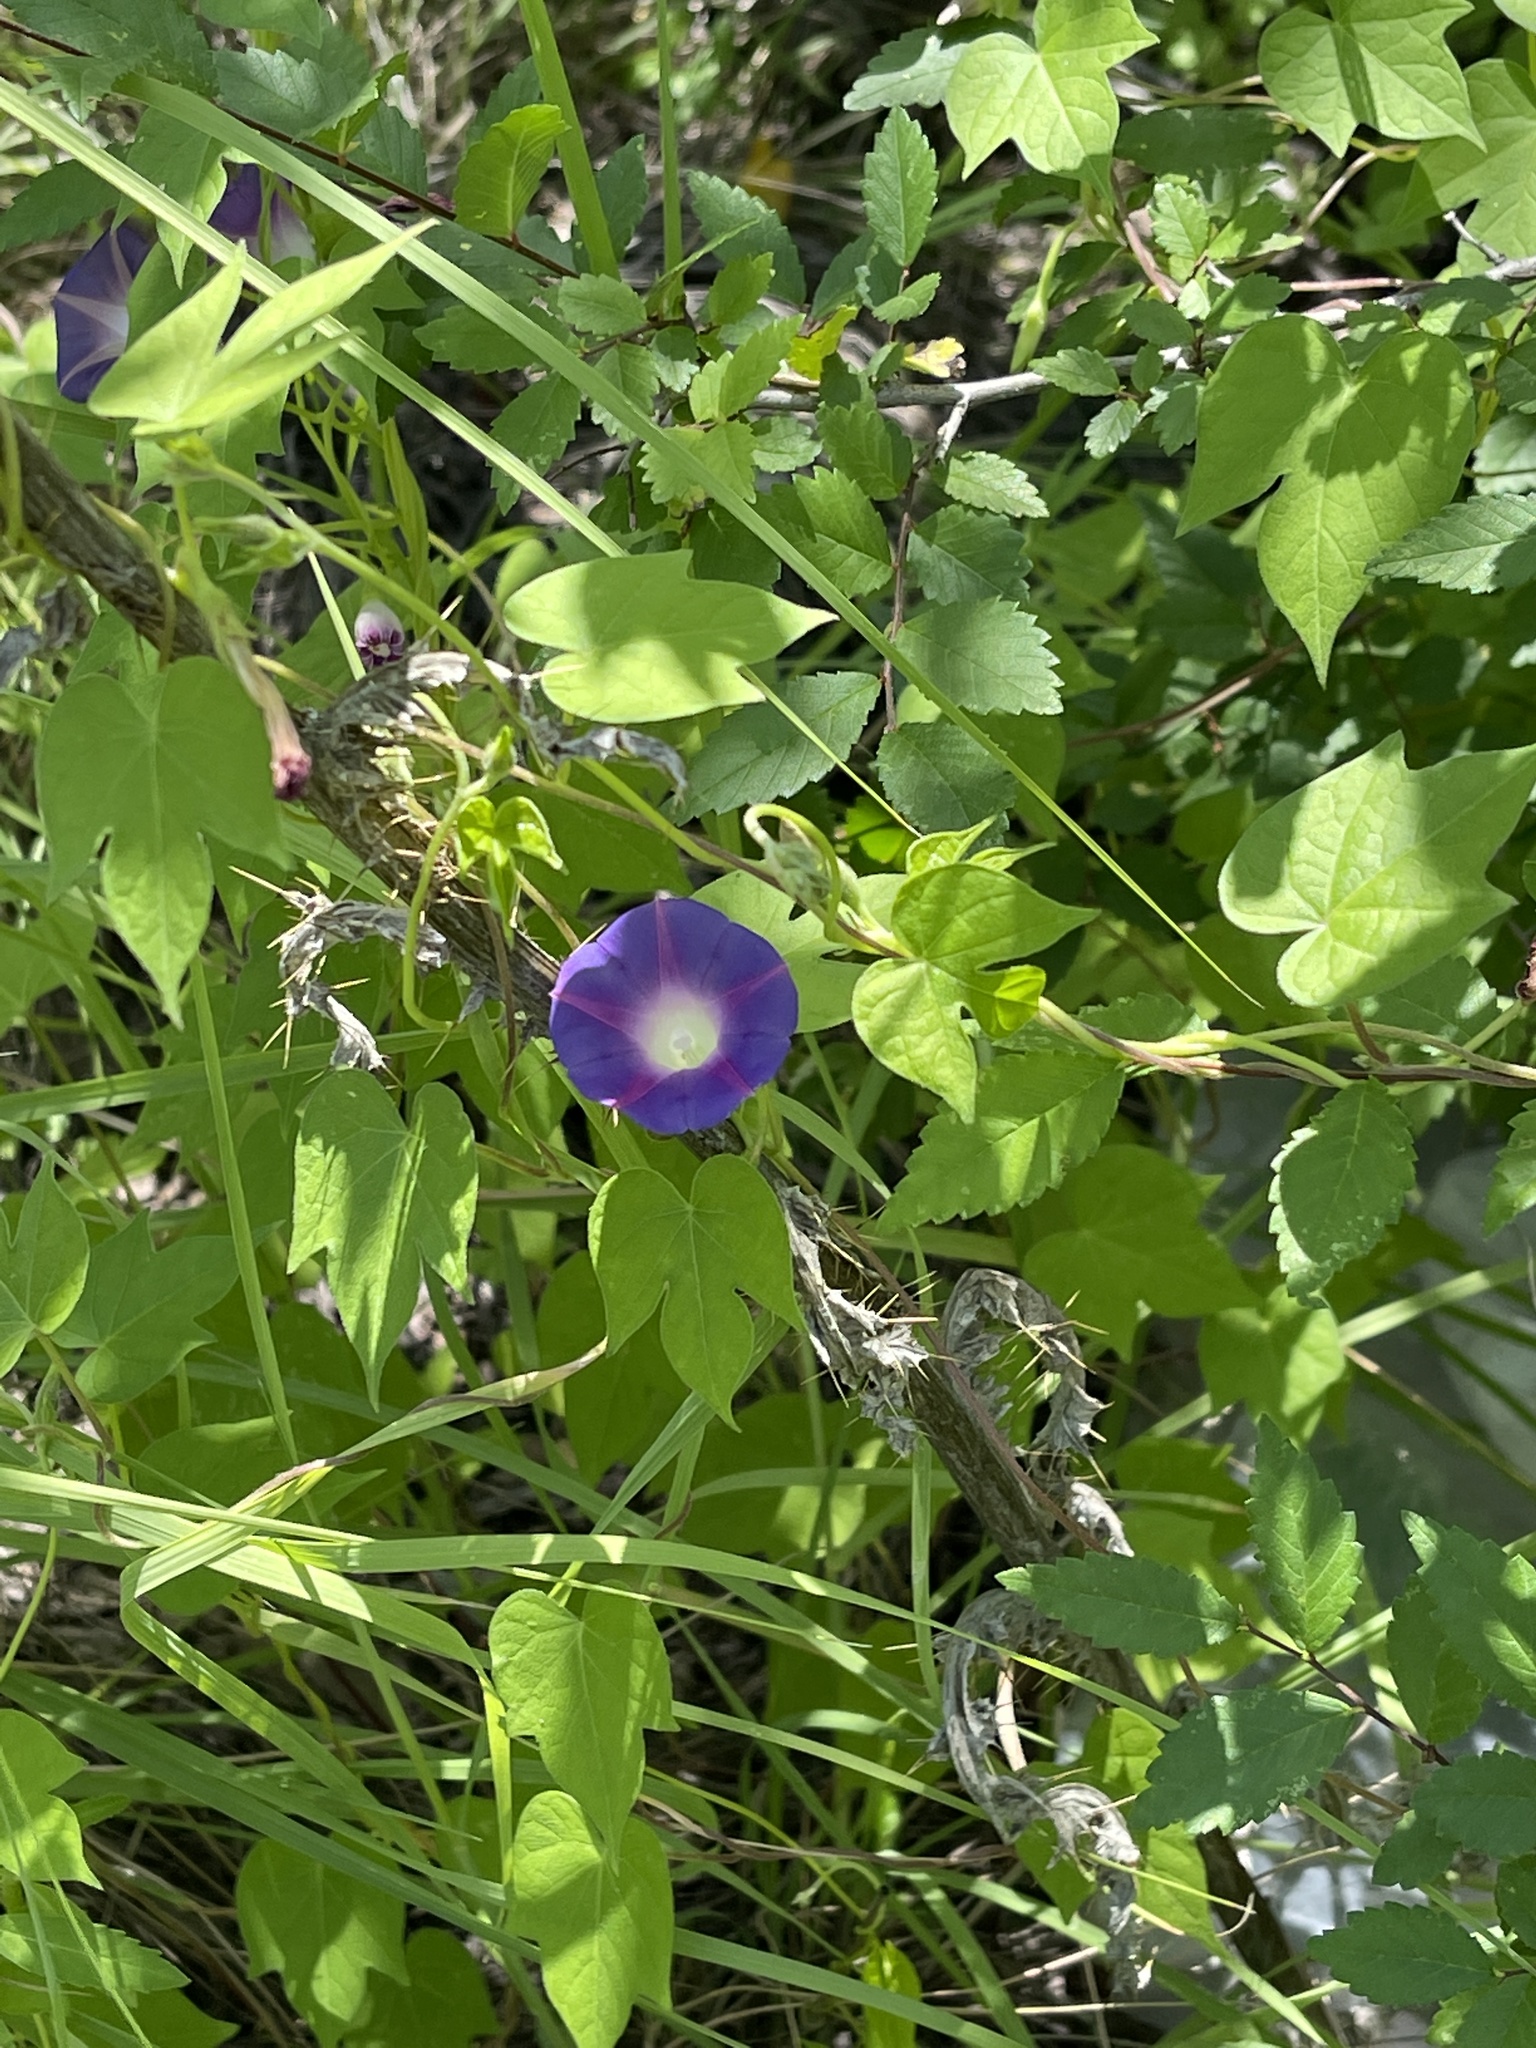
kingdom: Plantae
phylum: Tracheophyta
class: Magnoliopsida
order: Solanales
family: Convolvulaceae
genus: Ipomoea
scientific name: Ipomoea purpurea
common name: Common morning-glory
